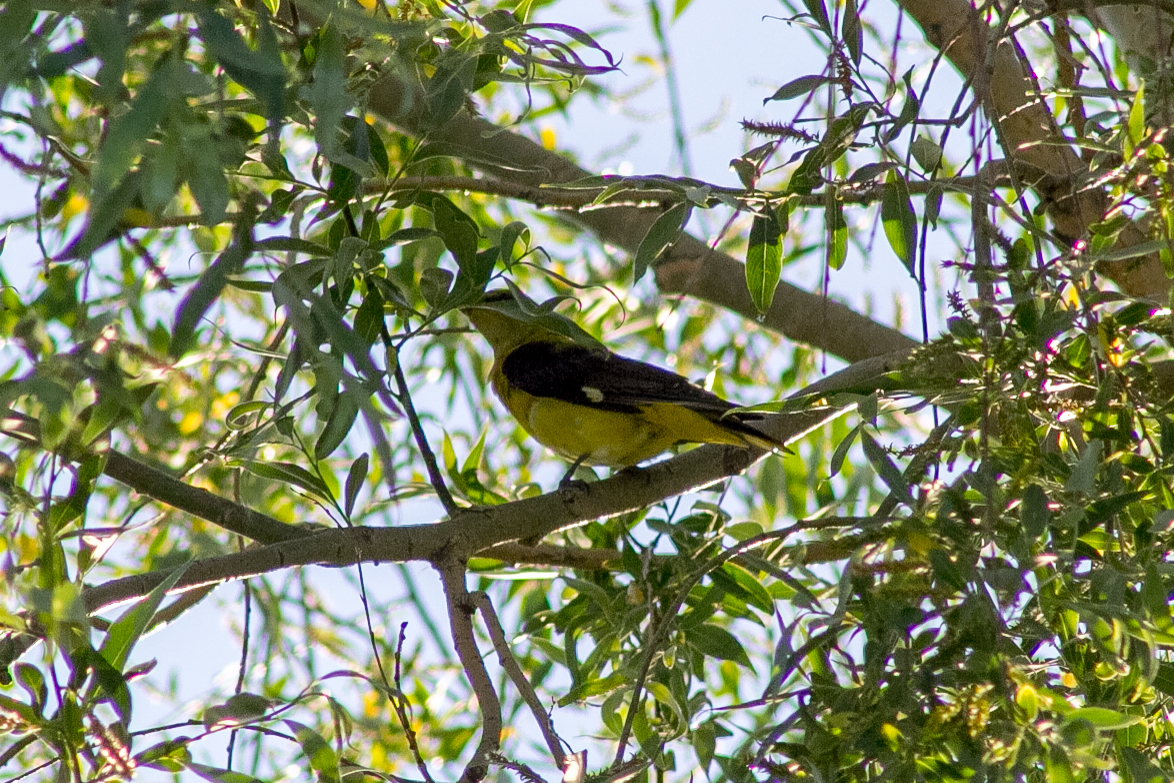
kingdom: Animalia
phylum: Chordata
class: Aves
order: Passeriformes
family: Oriolidae
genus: Oriolus
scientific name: Oriolus oriolus
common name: Eurasian golden oriole
